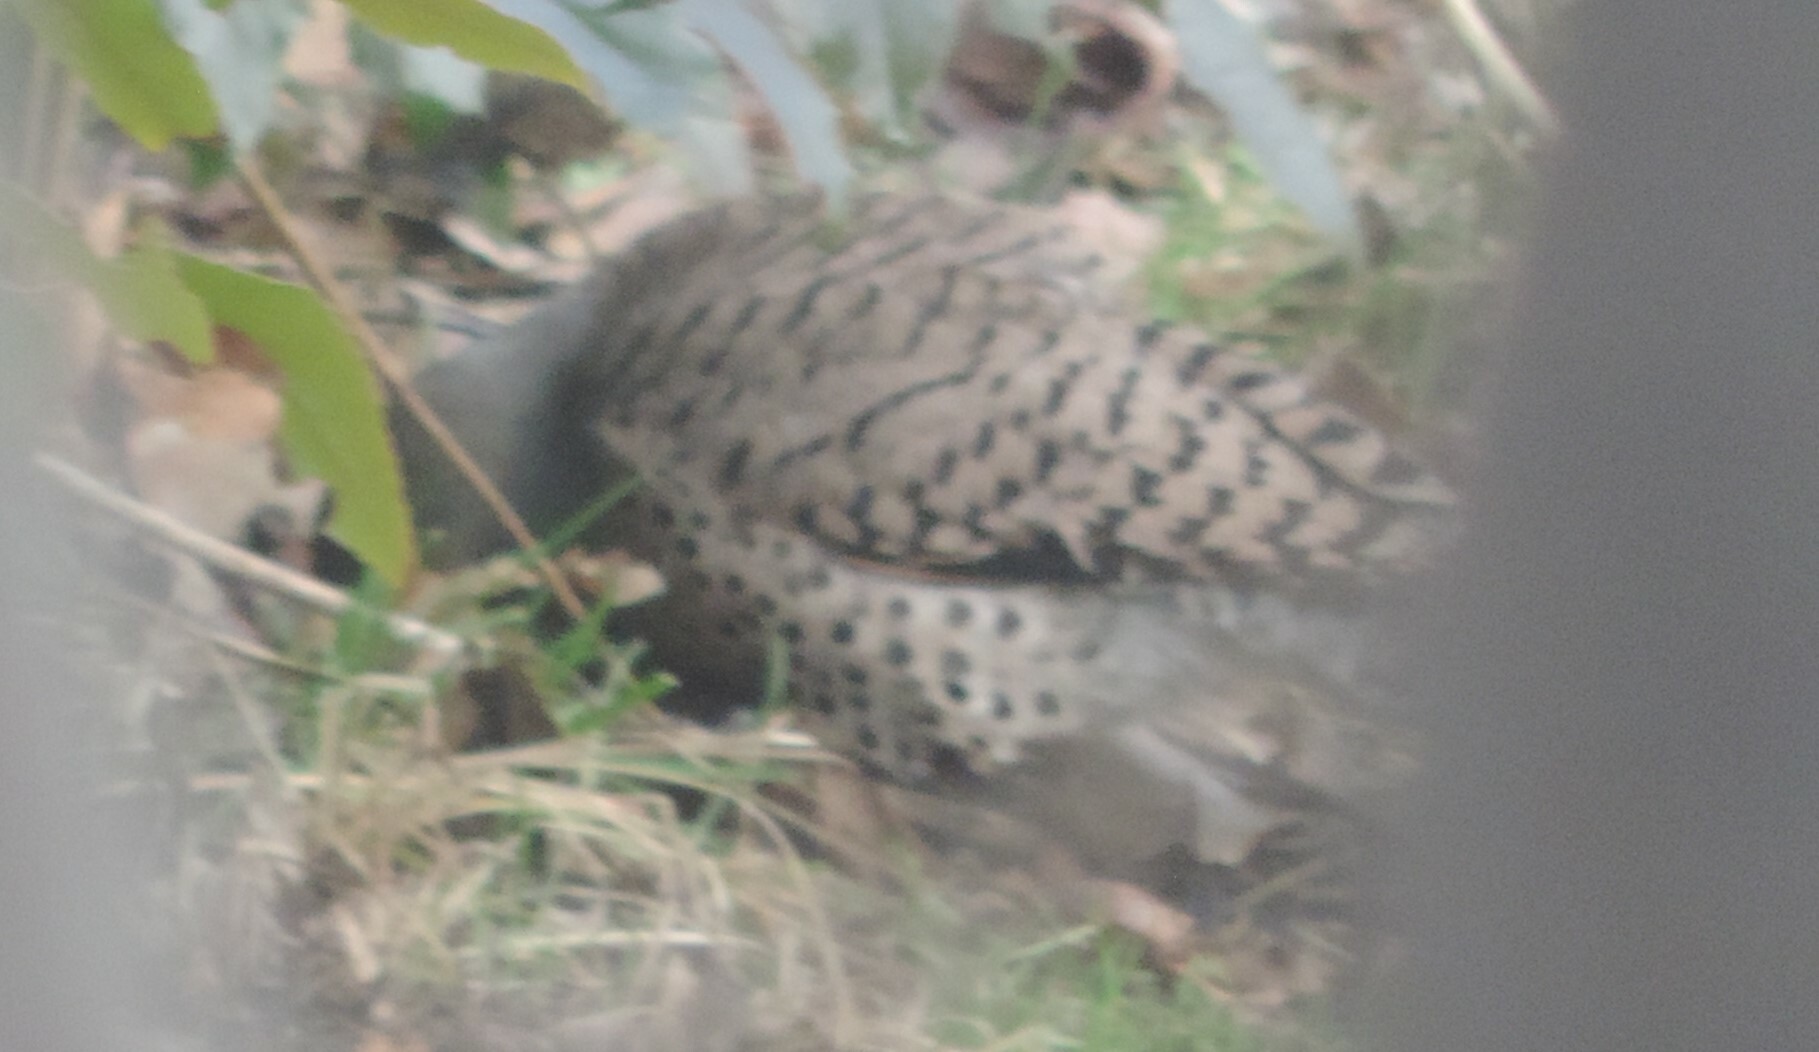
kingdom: Animalia
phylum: Chordata
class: Aves
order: Piciformes
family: Picidae
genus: Colaptes
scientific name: Colaptes auratus
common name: Northern flicker
